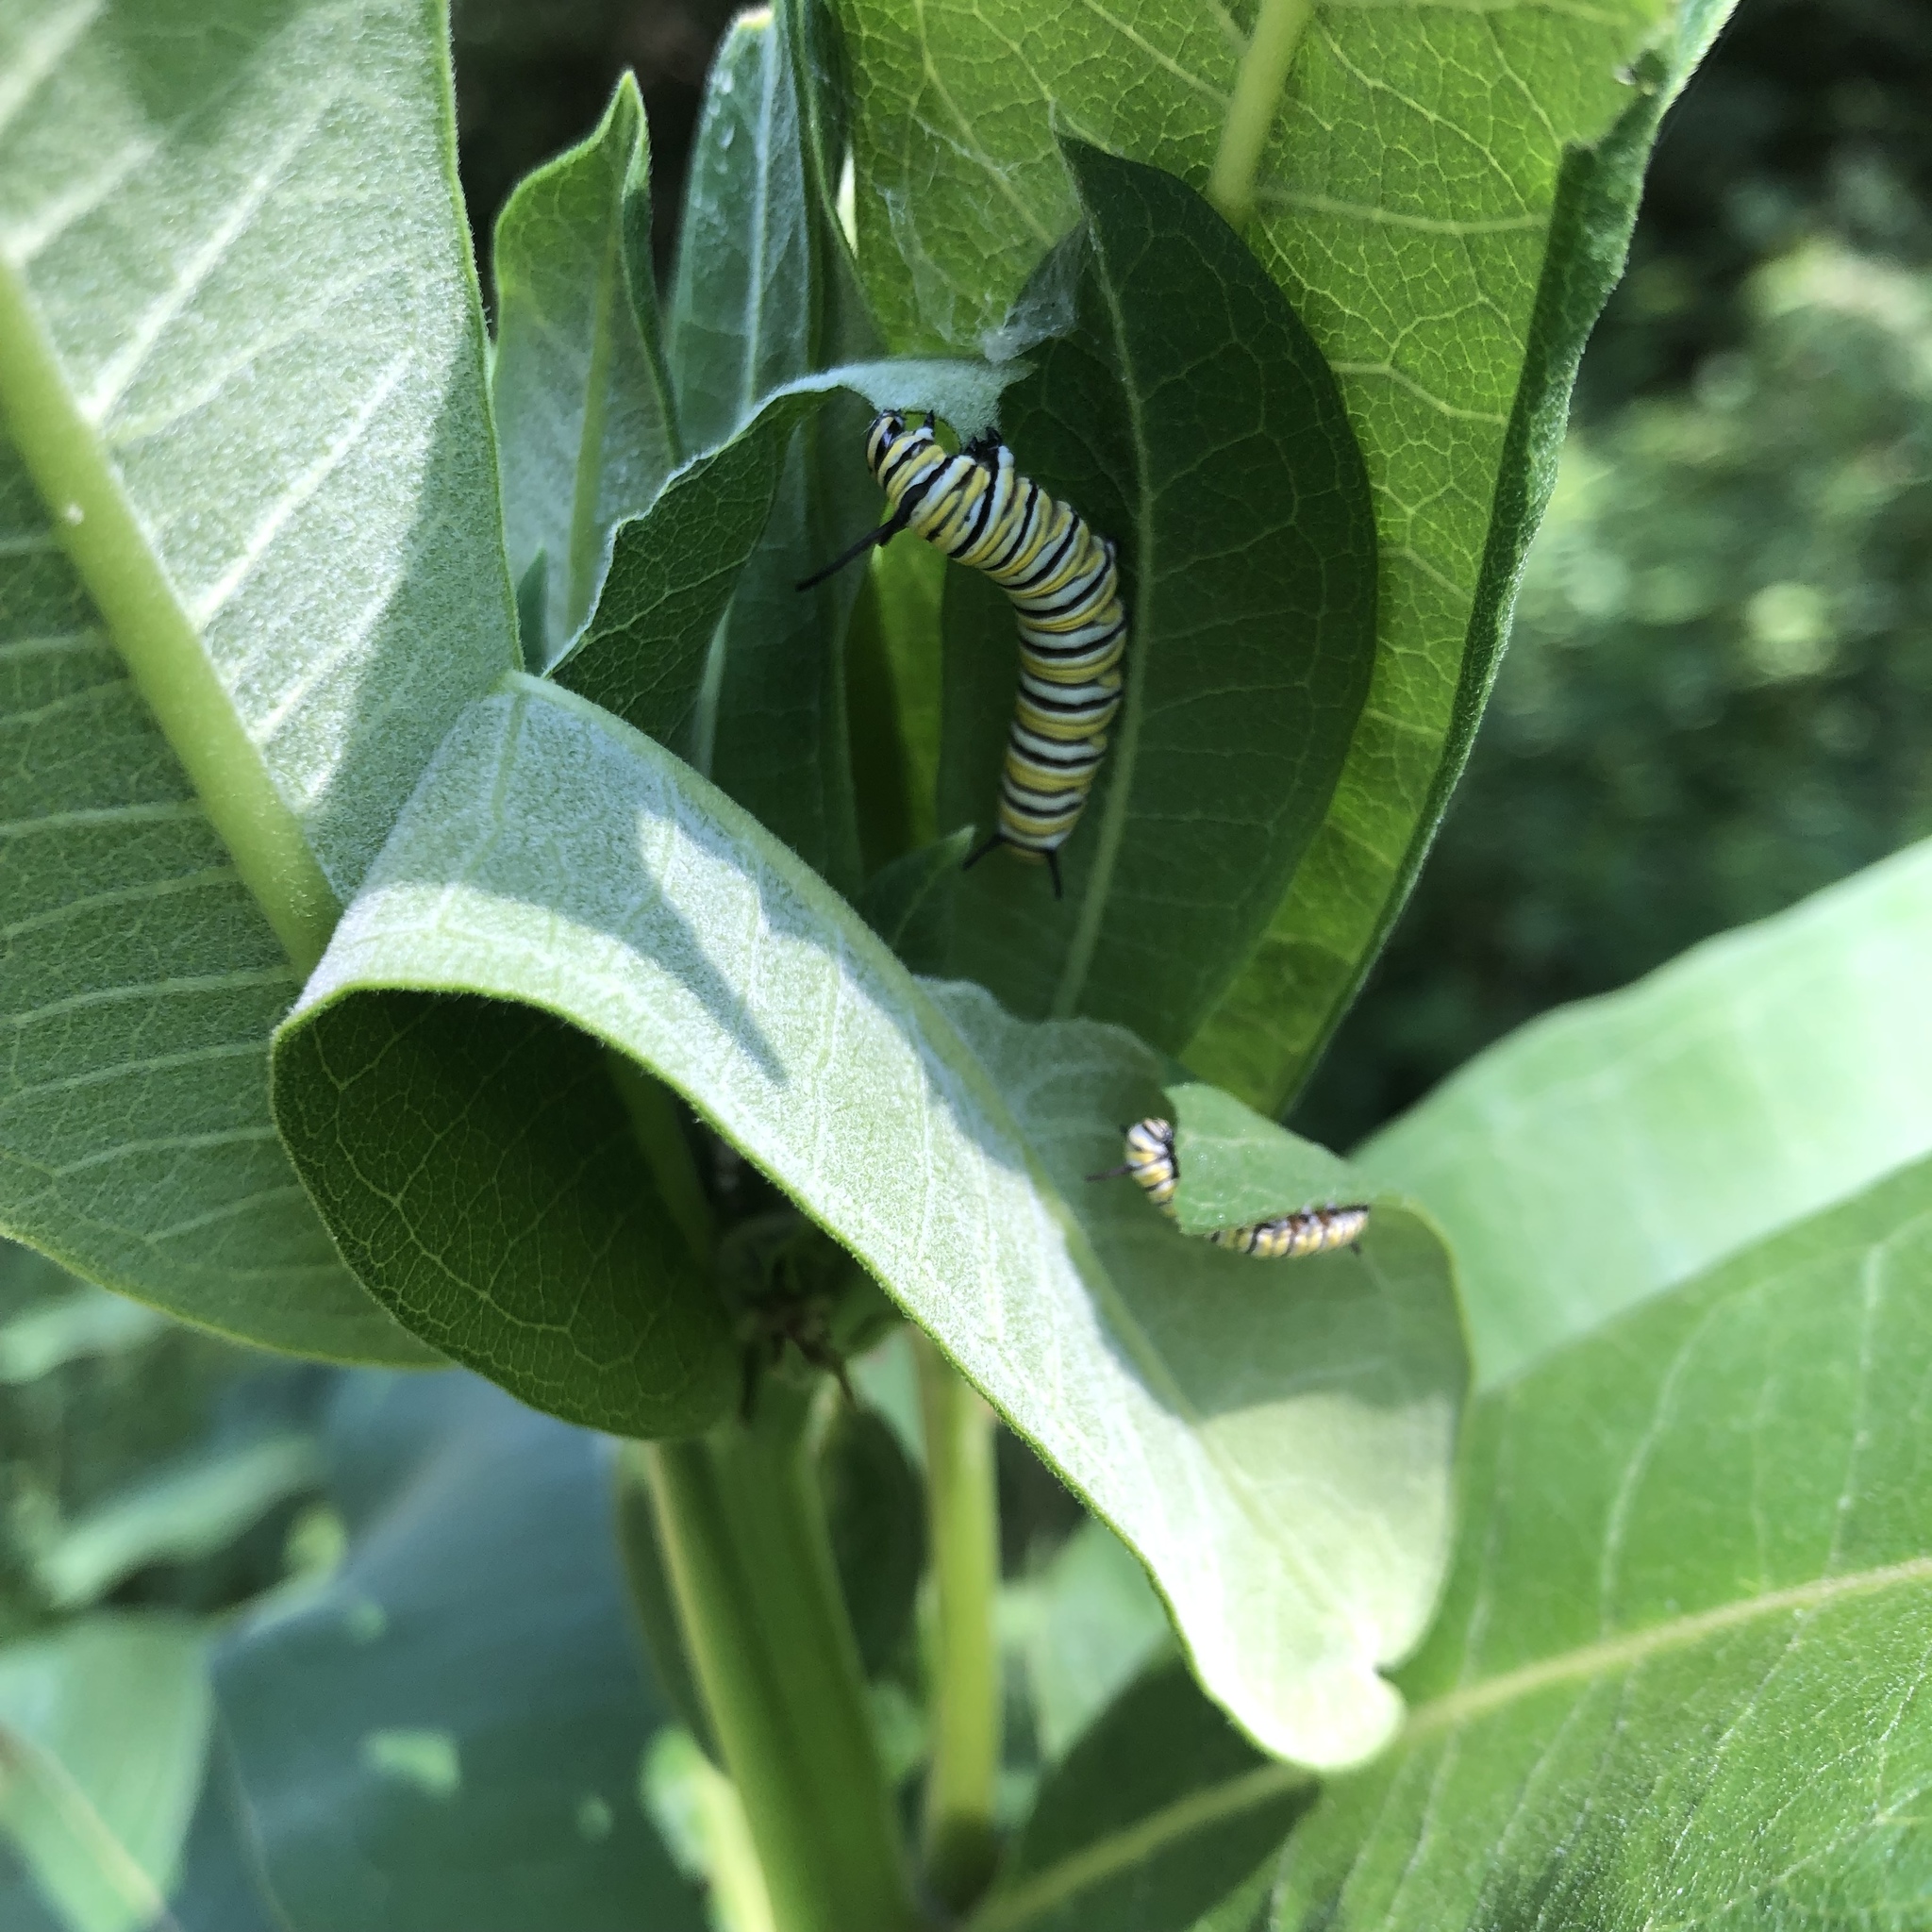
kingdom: Animalia
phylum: Arthropoda
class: Insecta
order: Lepidoptera
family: Nymphalidae
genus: Danaus
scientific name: Danaus plexippus
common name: Monarch
